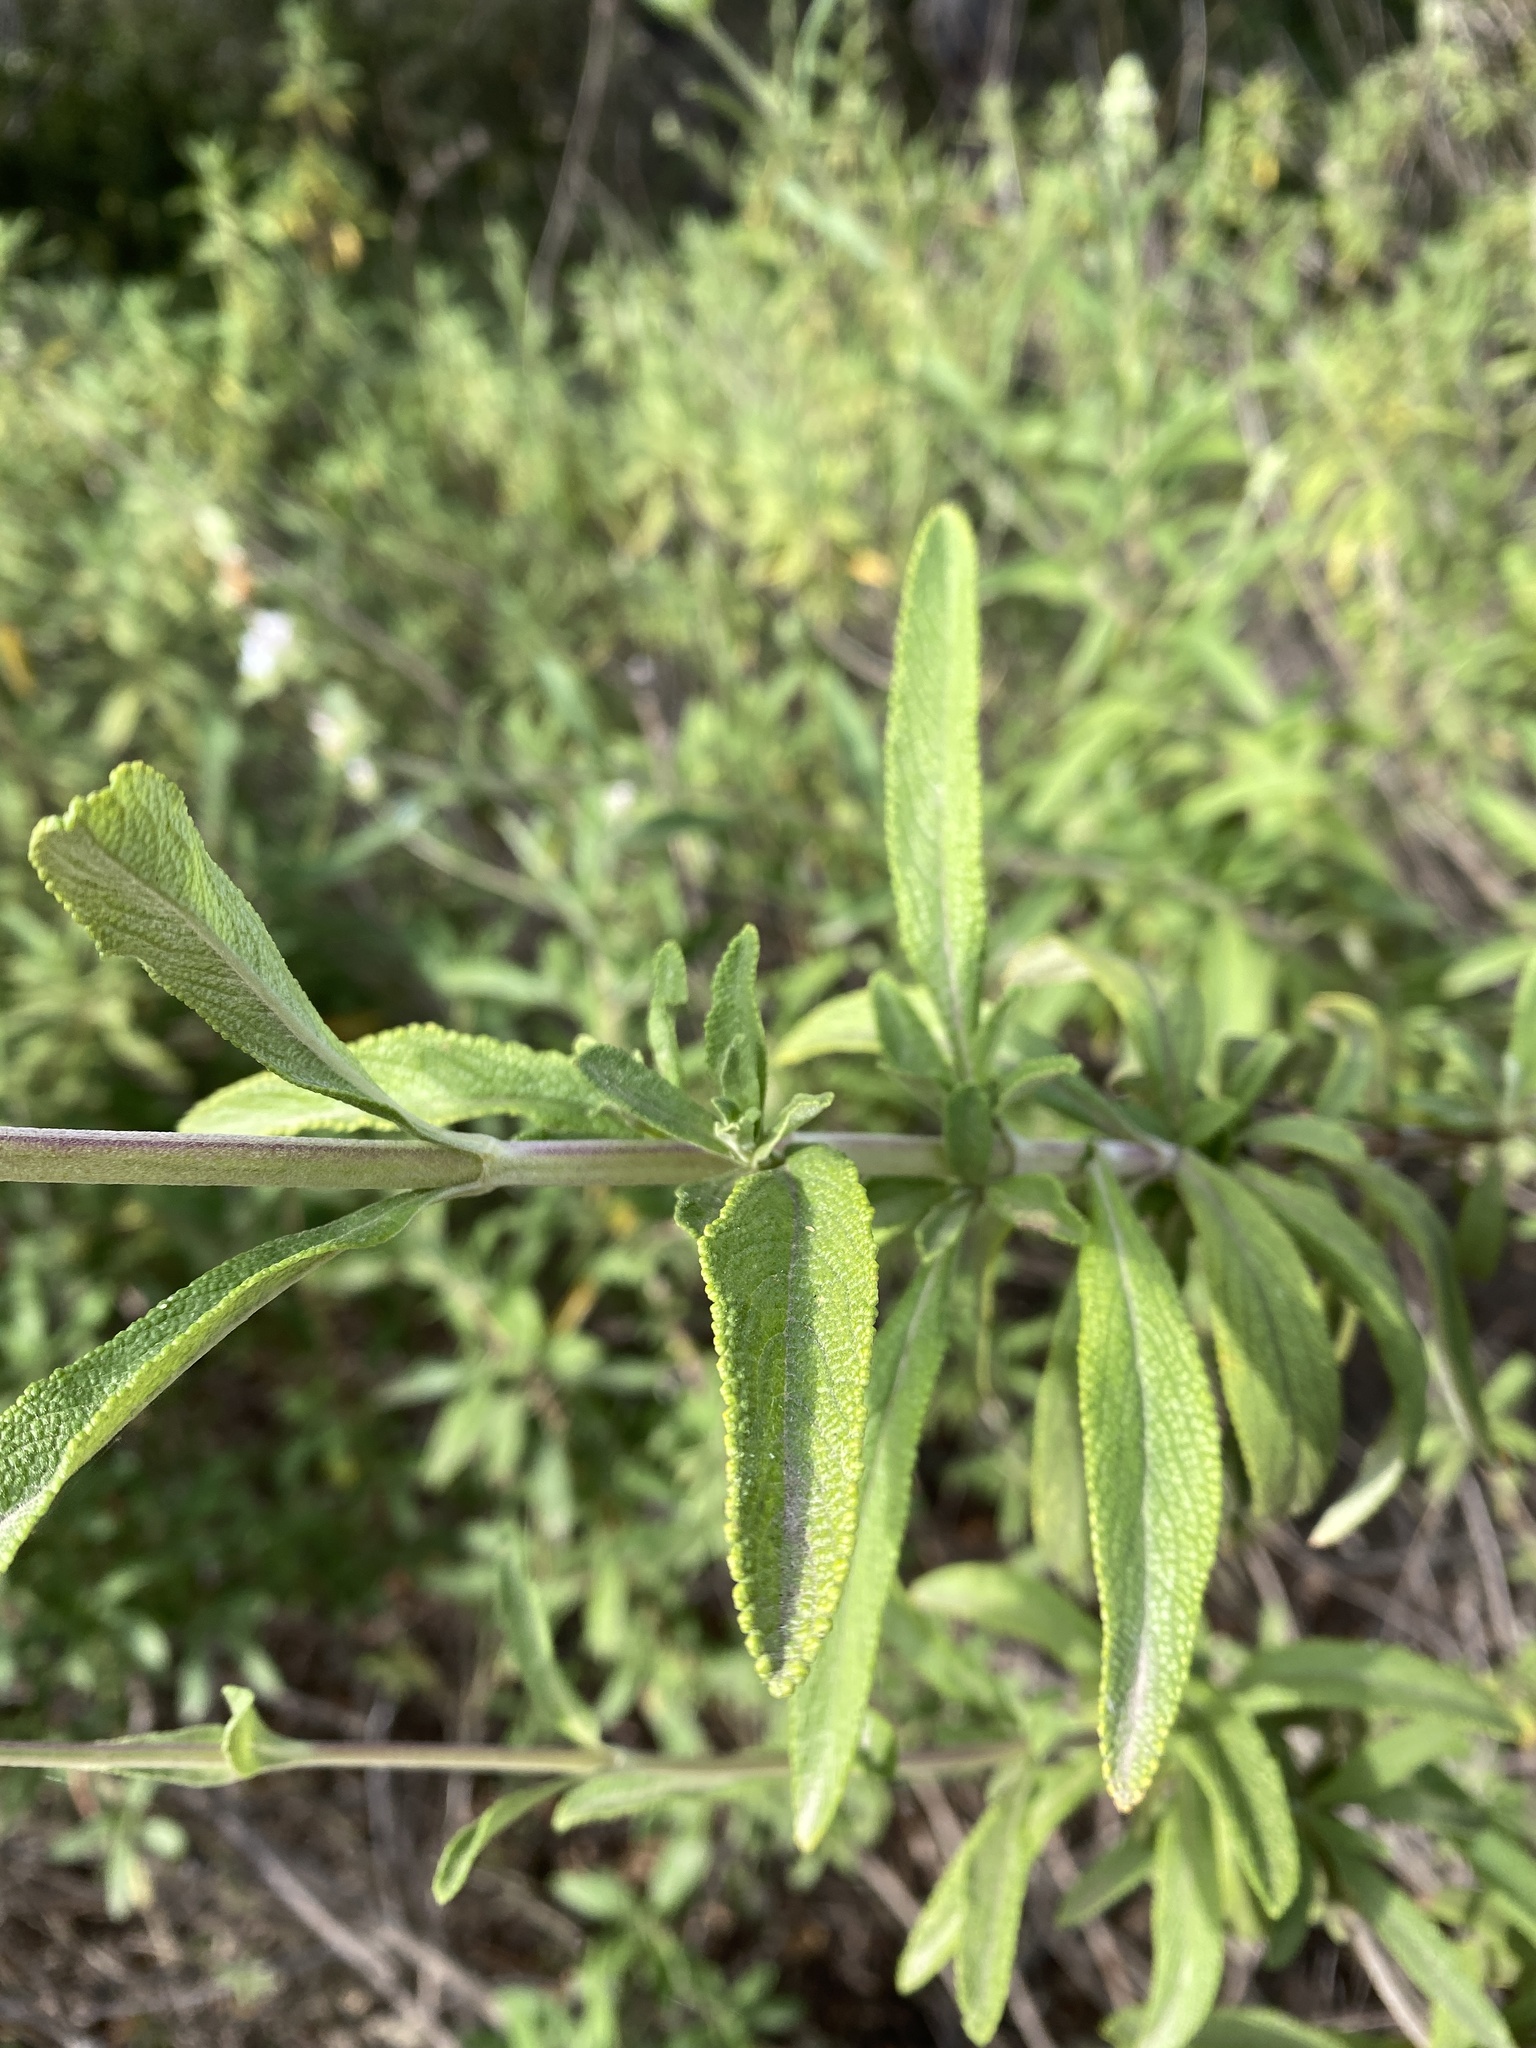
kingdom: Plantae
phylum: Tracheophyta
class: Magnoliopsida
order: Lamiales
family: Lamiaceae
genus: Salvia
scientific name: Salvia mellifera
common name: Black sage
